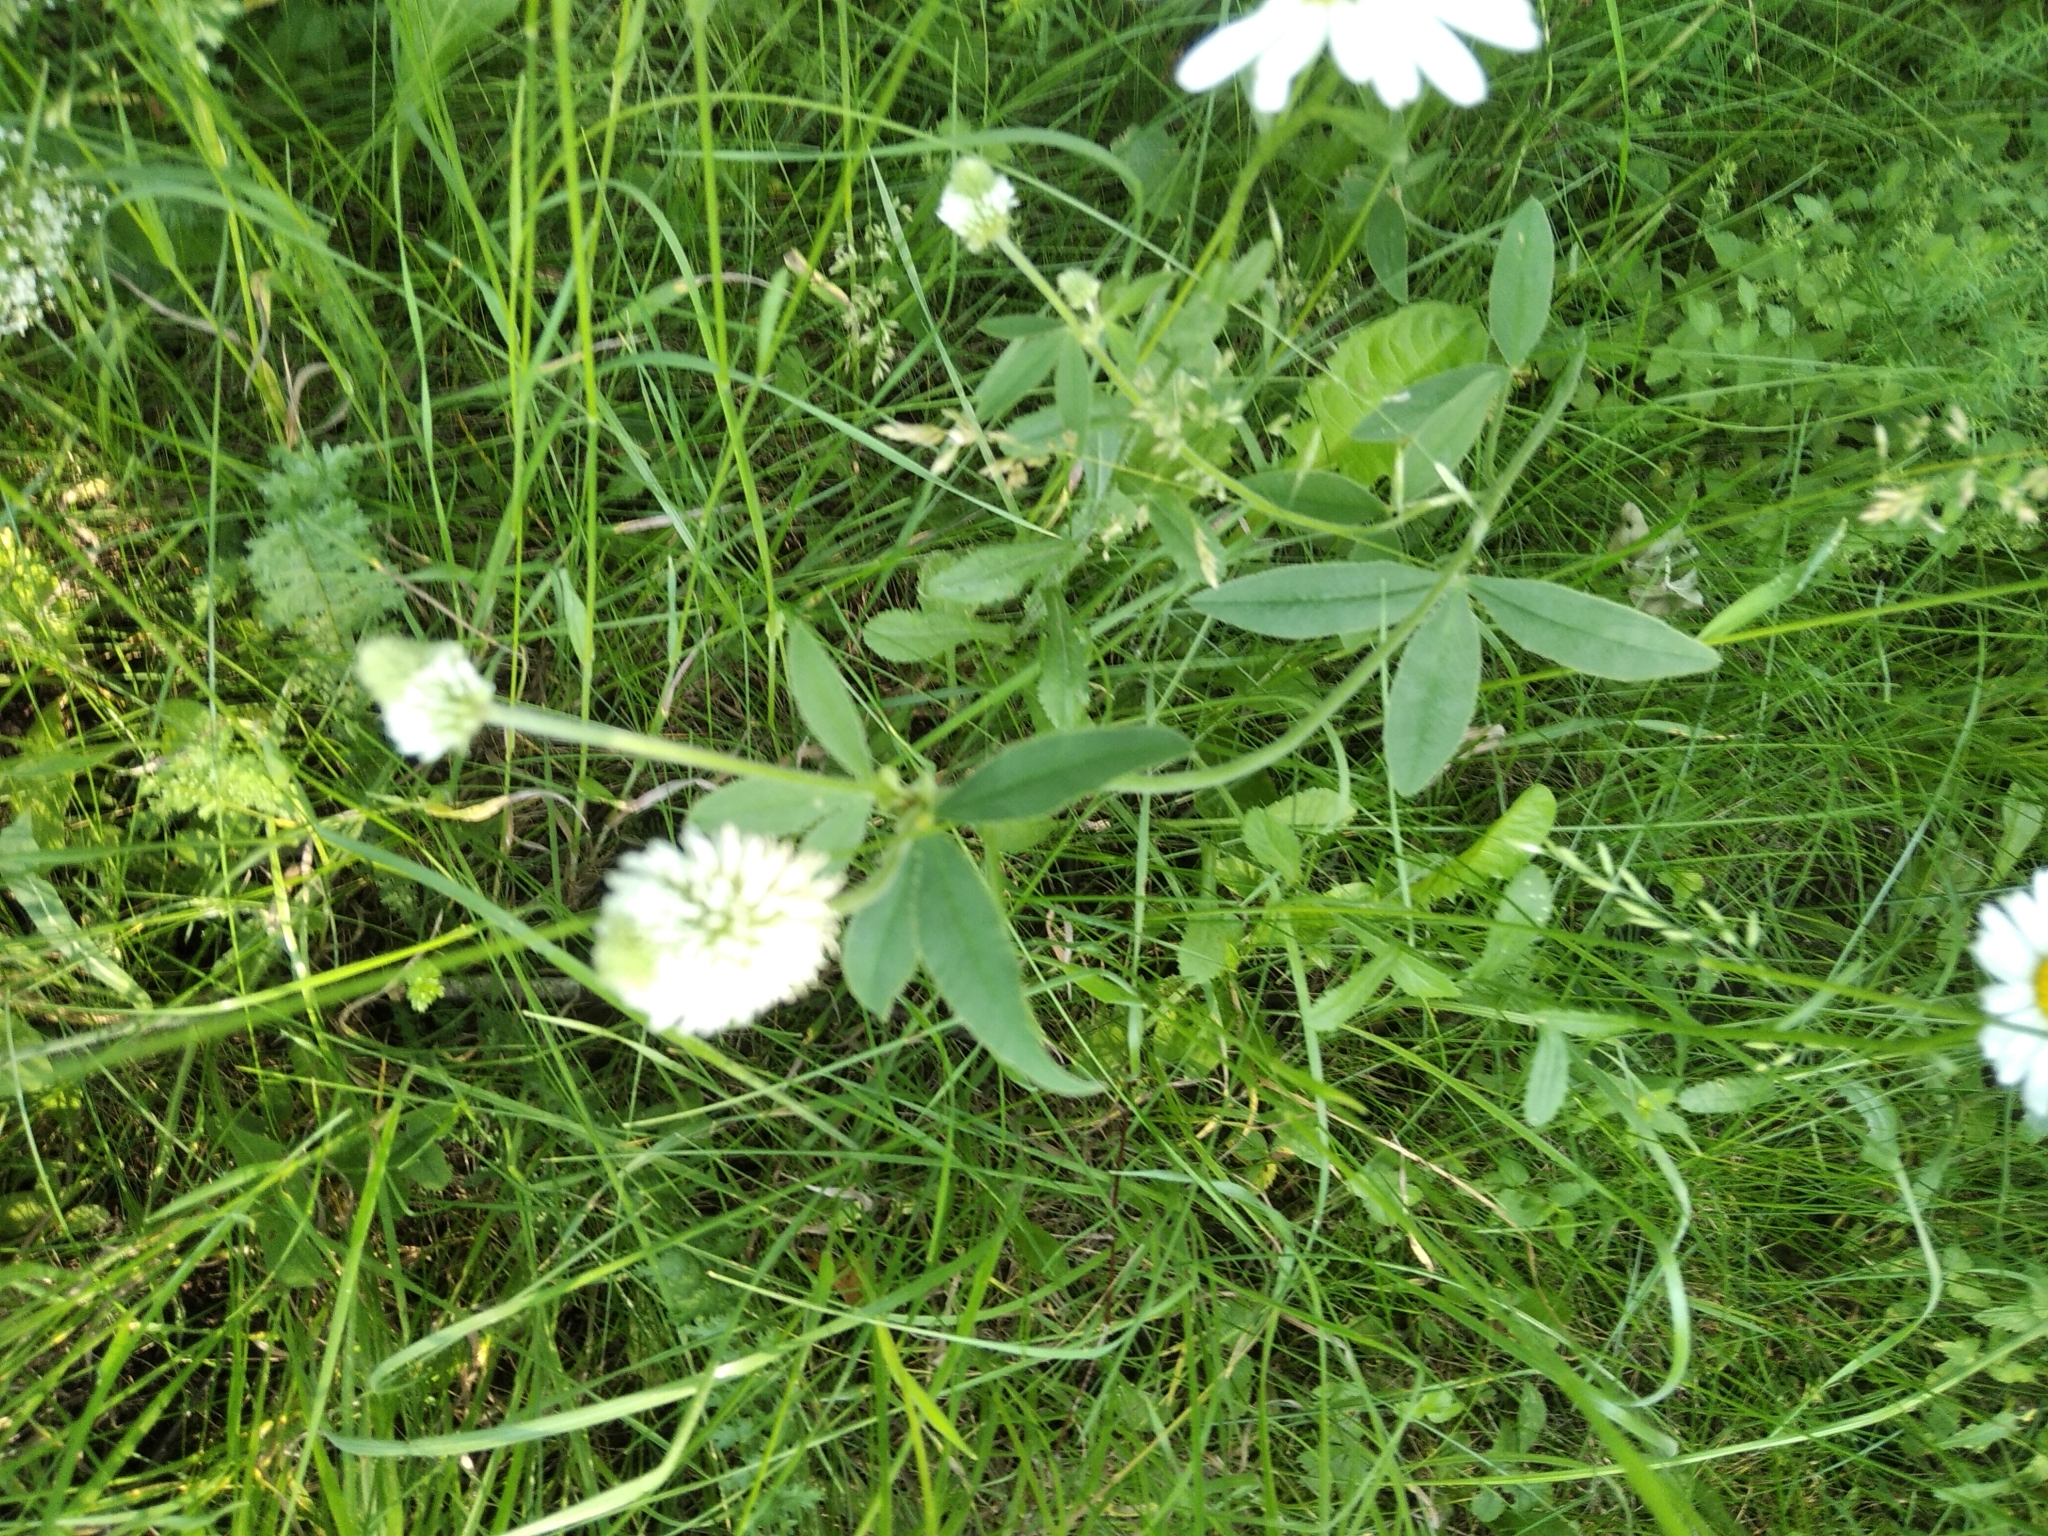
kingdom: Plantae
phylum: Tracheophyta
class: Magnoliopsida
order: Fabales
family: Fabaceae
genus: Trifolium
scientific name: Trifolium montanum
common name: Mountain clover
